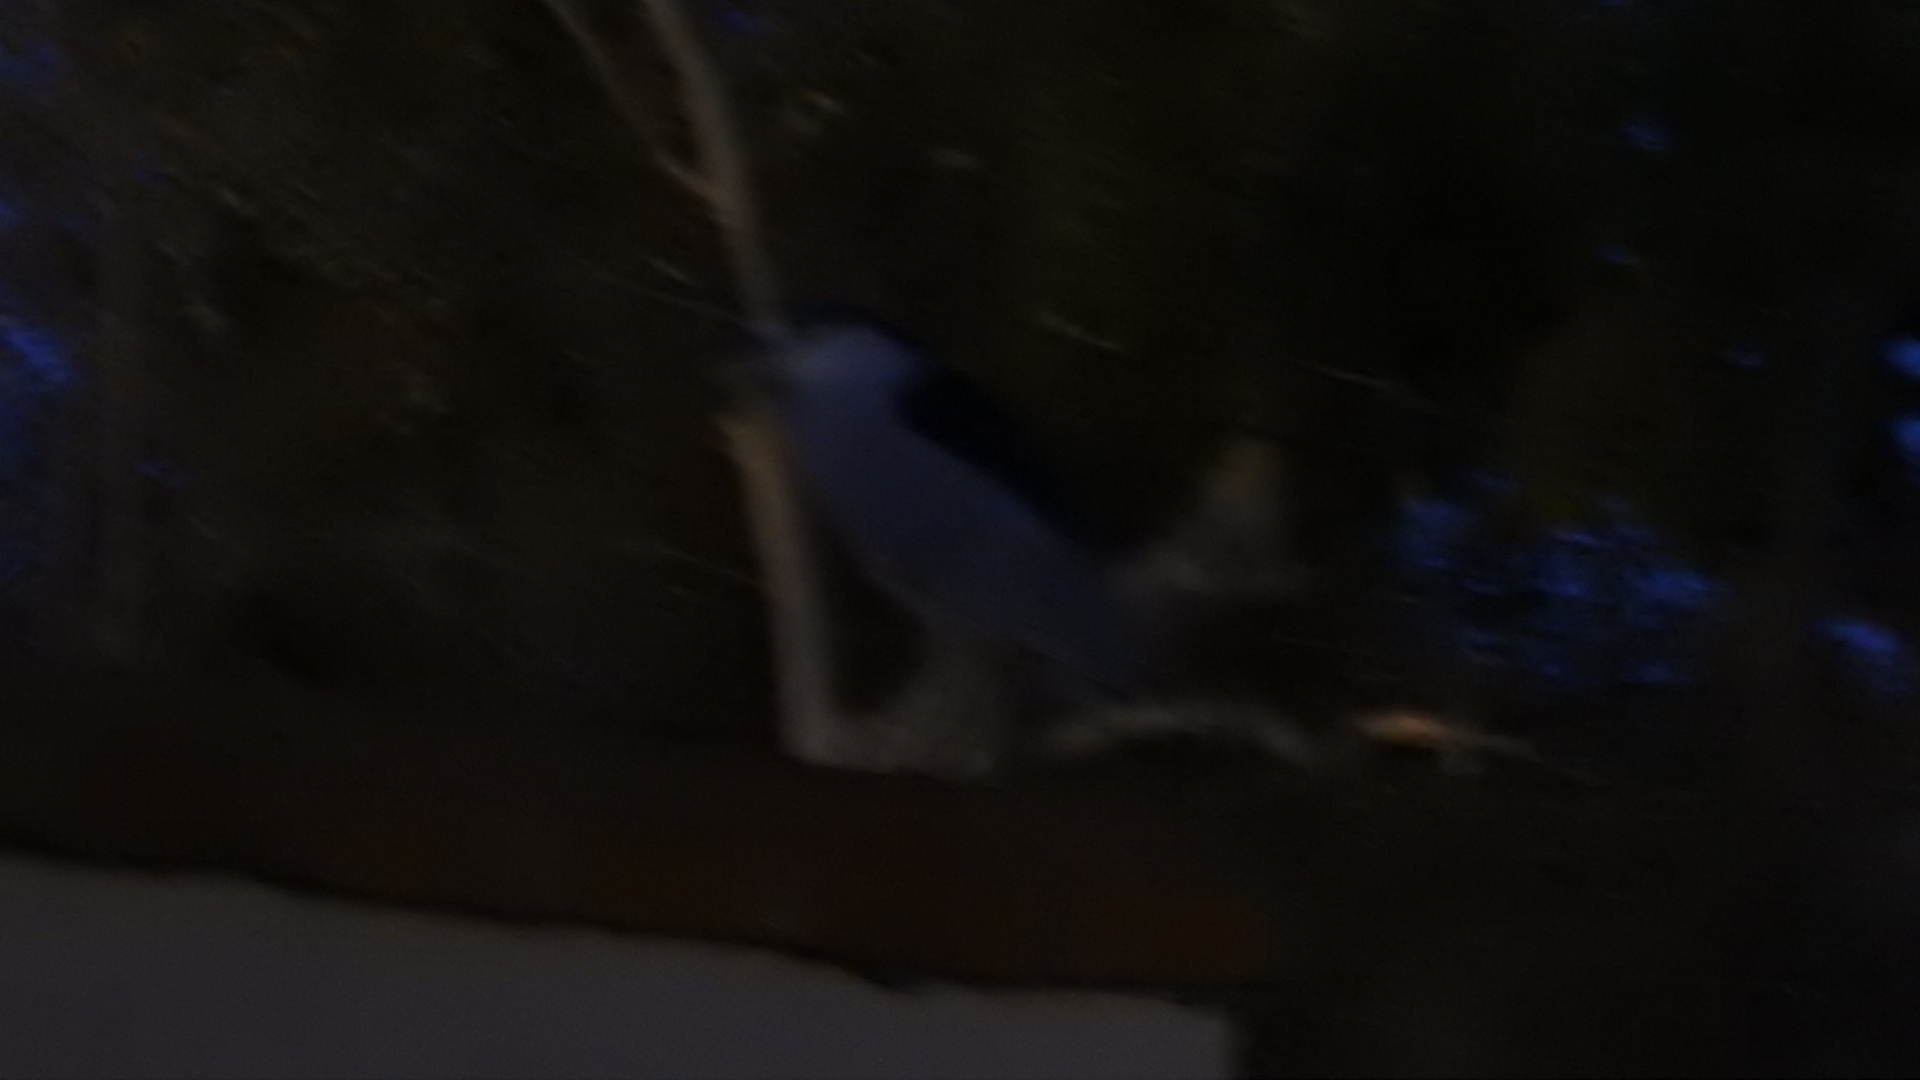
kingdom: Animalia
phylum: Chordata
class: Aves
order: Pelecaniformes
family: Ardeidae
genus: Nycticorax
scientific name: Nycticorax nycticorax
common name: Black-crowned night heron
